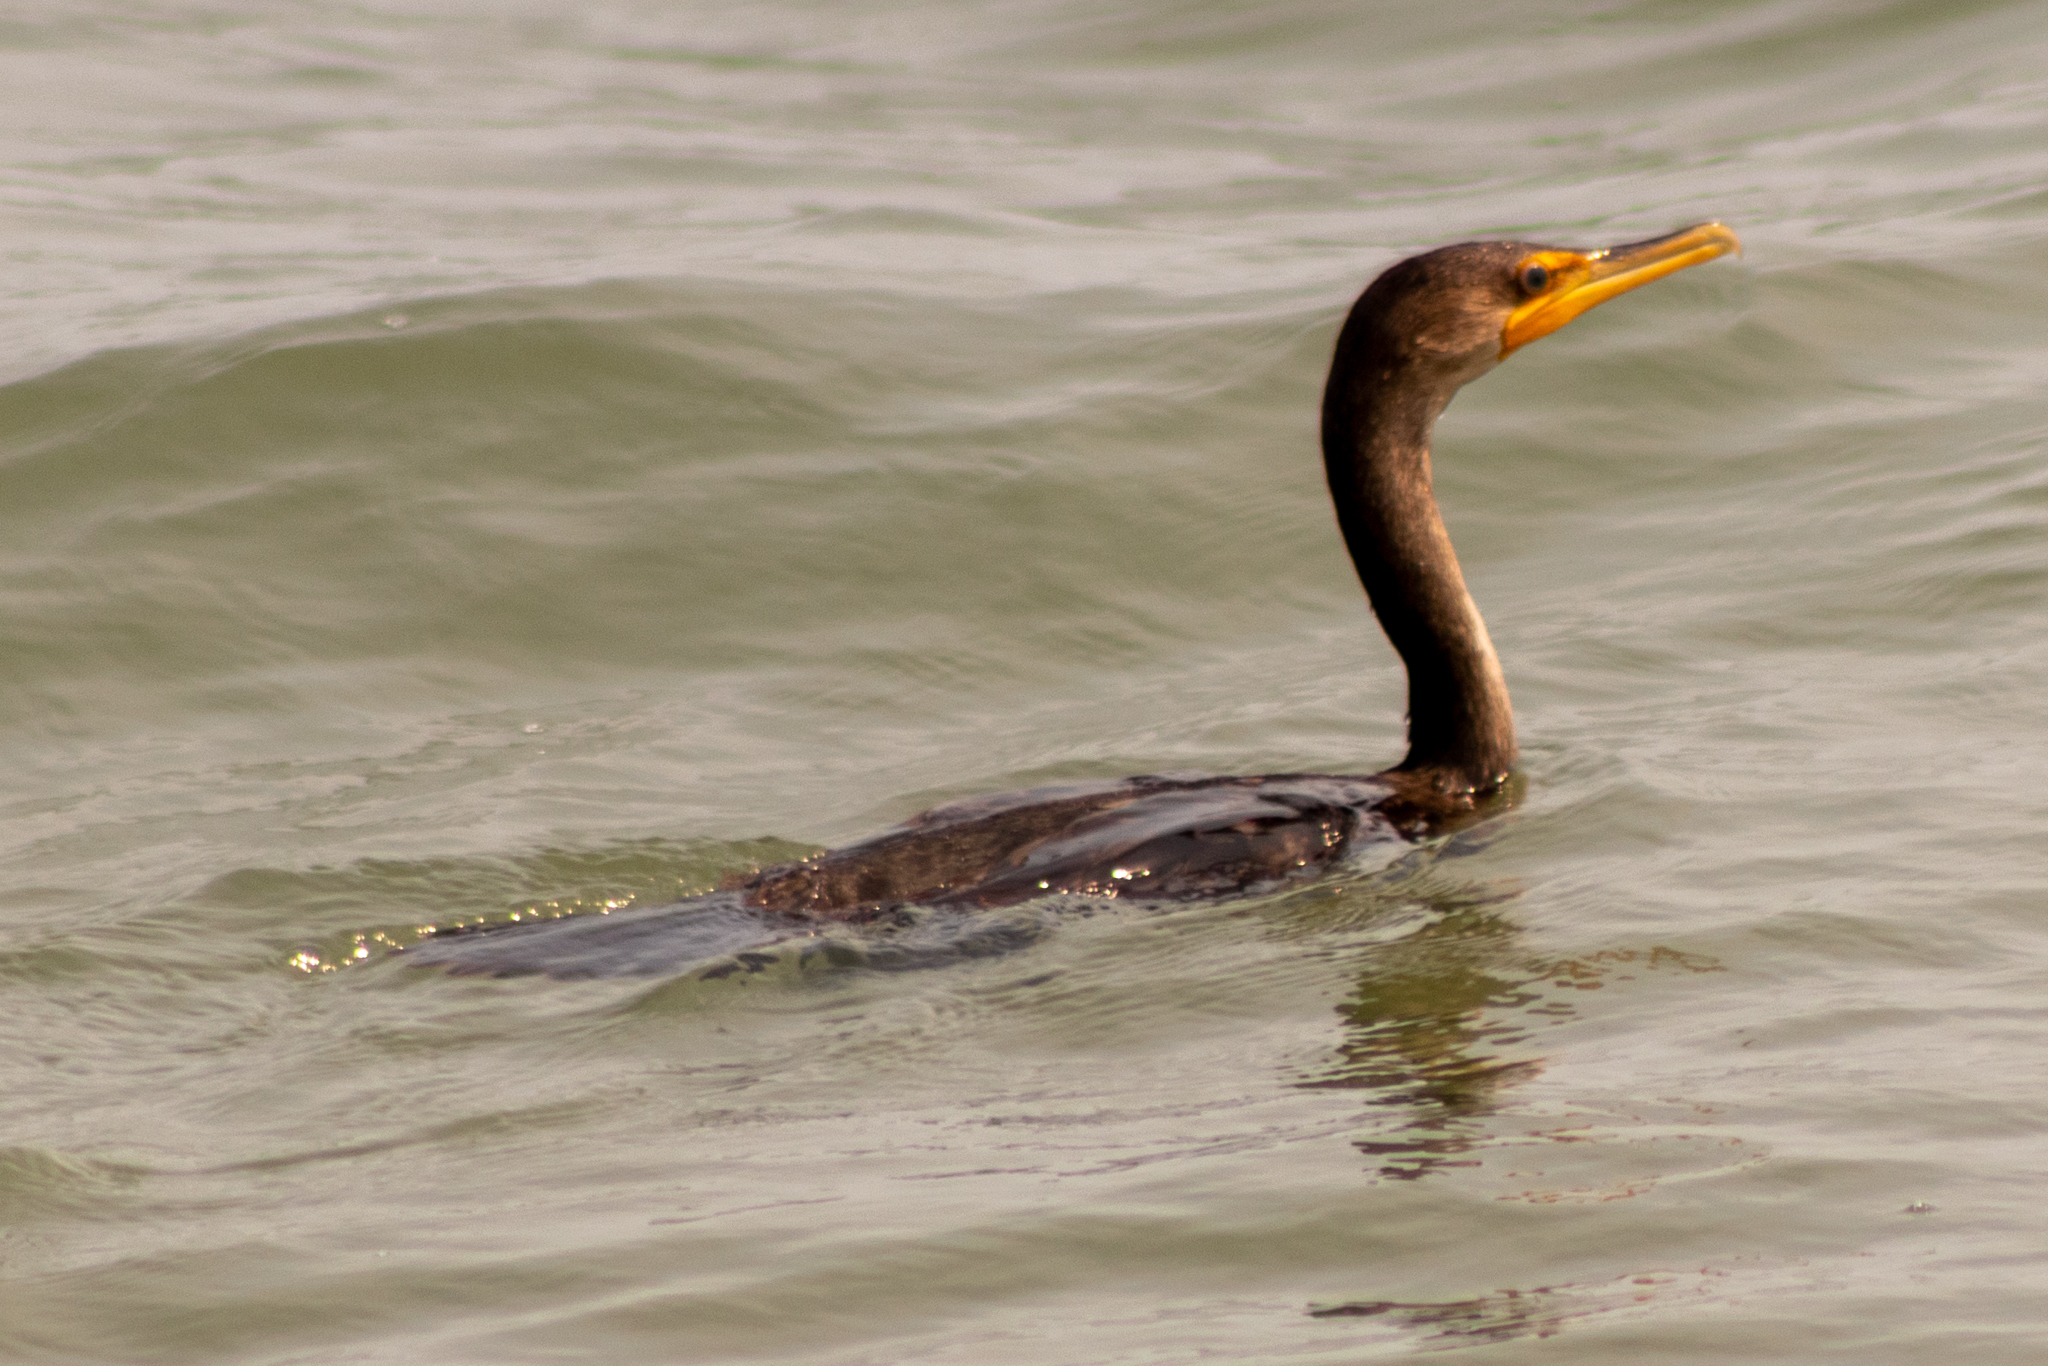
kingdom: Animalia
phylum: Chordata
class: Aves
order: Suliformes
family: Phalacrocoracidae
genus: Phalacrocorax
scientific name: Phalacrocorax auritus
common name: Double-crested cormorant
